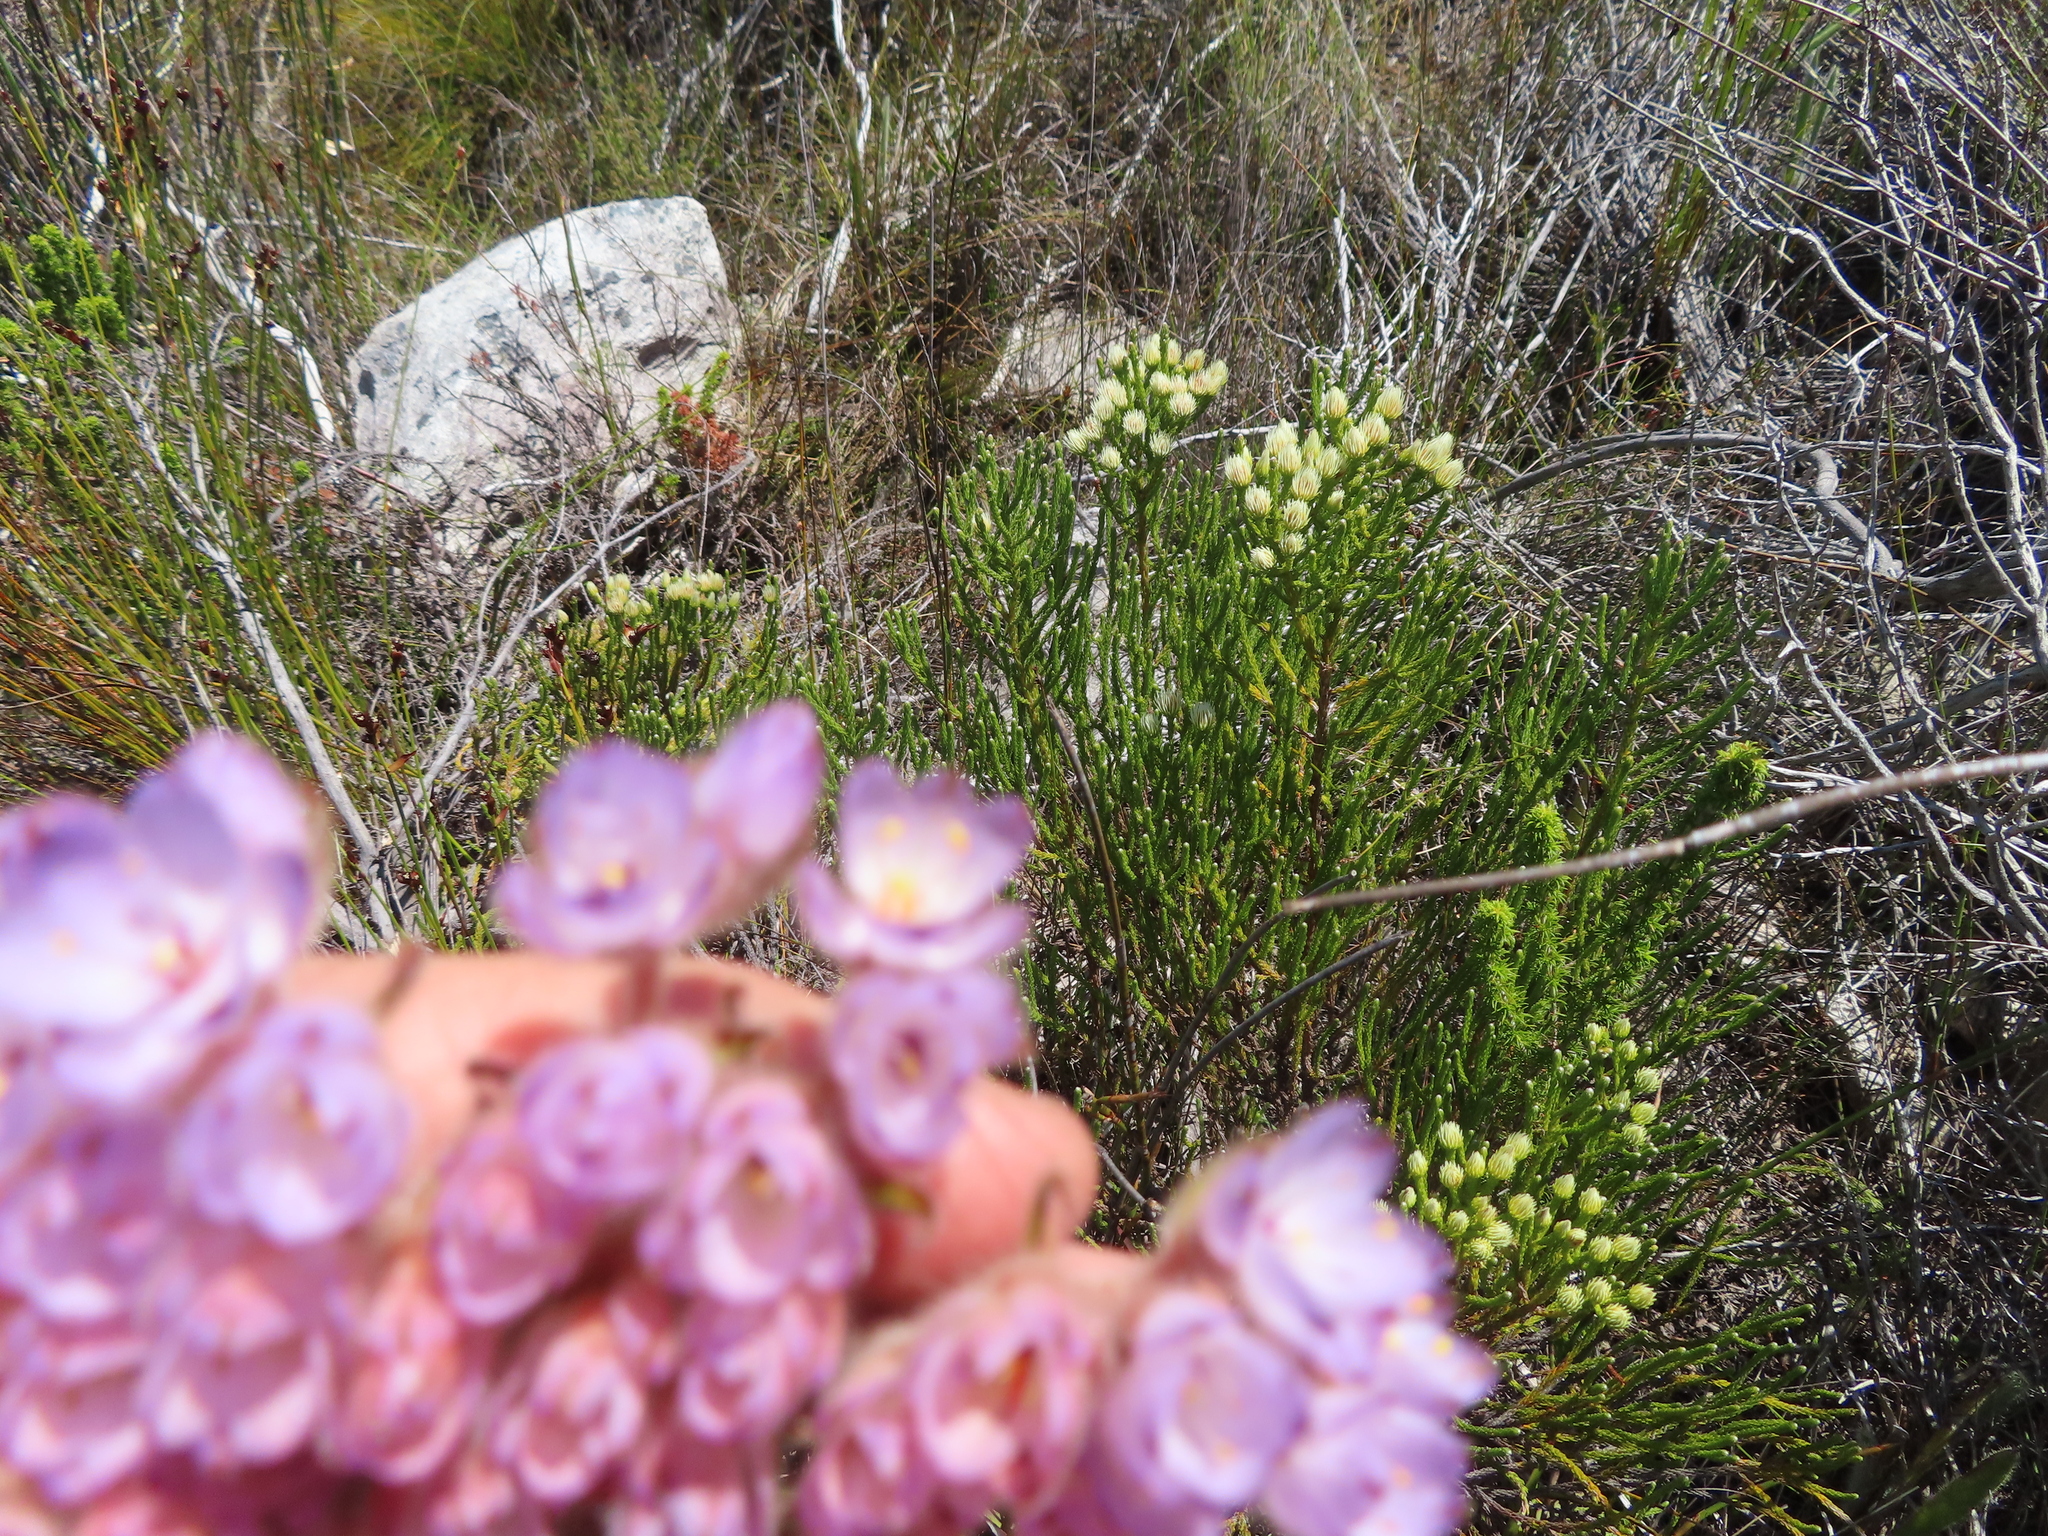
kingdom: Plantae
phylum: Tracheophyta
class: Liliopsida
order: Commelinales
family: Haemodoraceae
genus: Dilatris
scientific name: Dilatris pillansii
